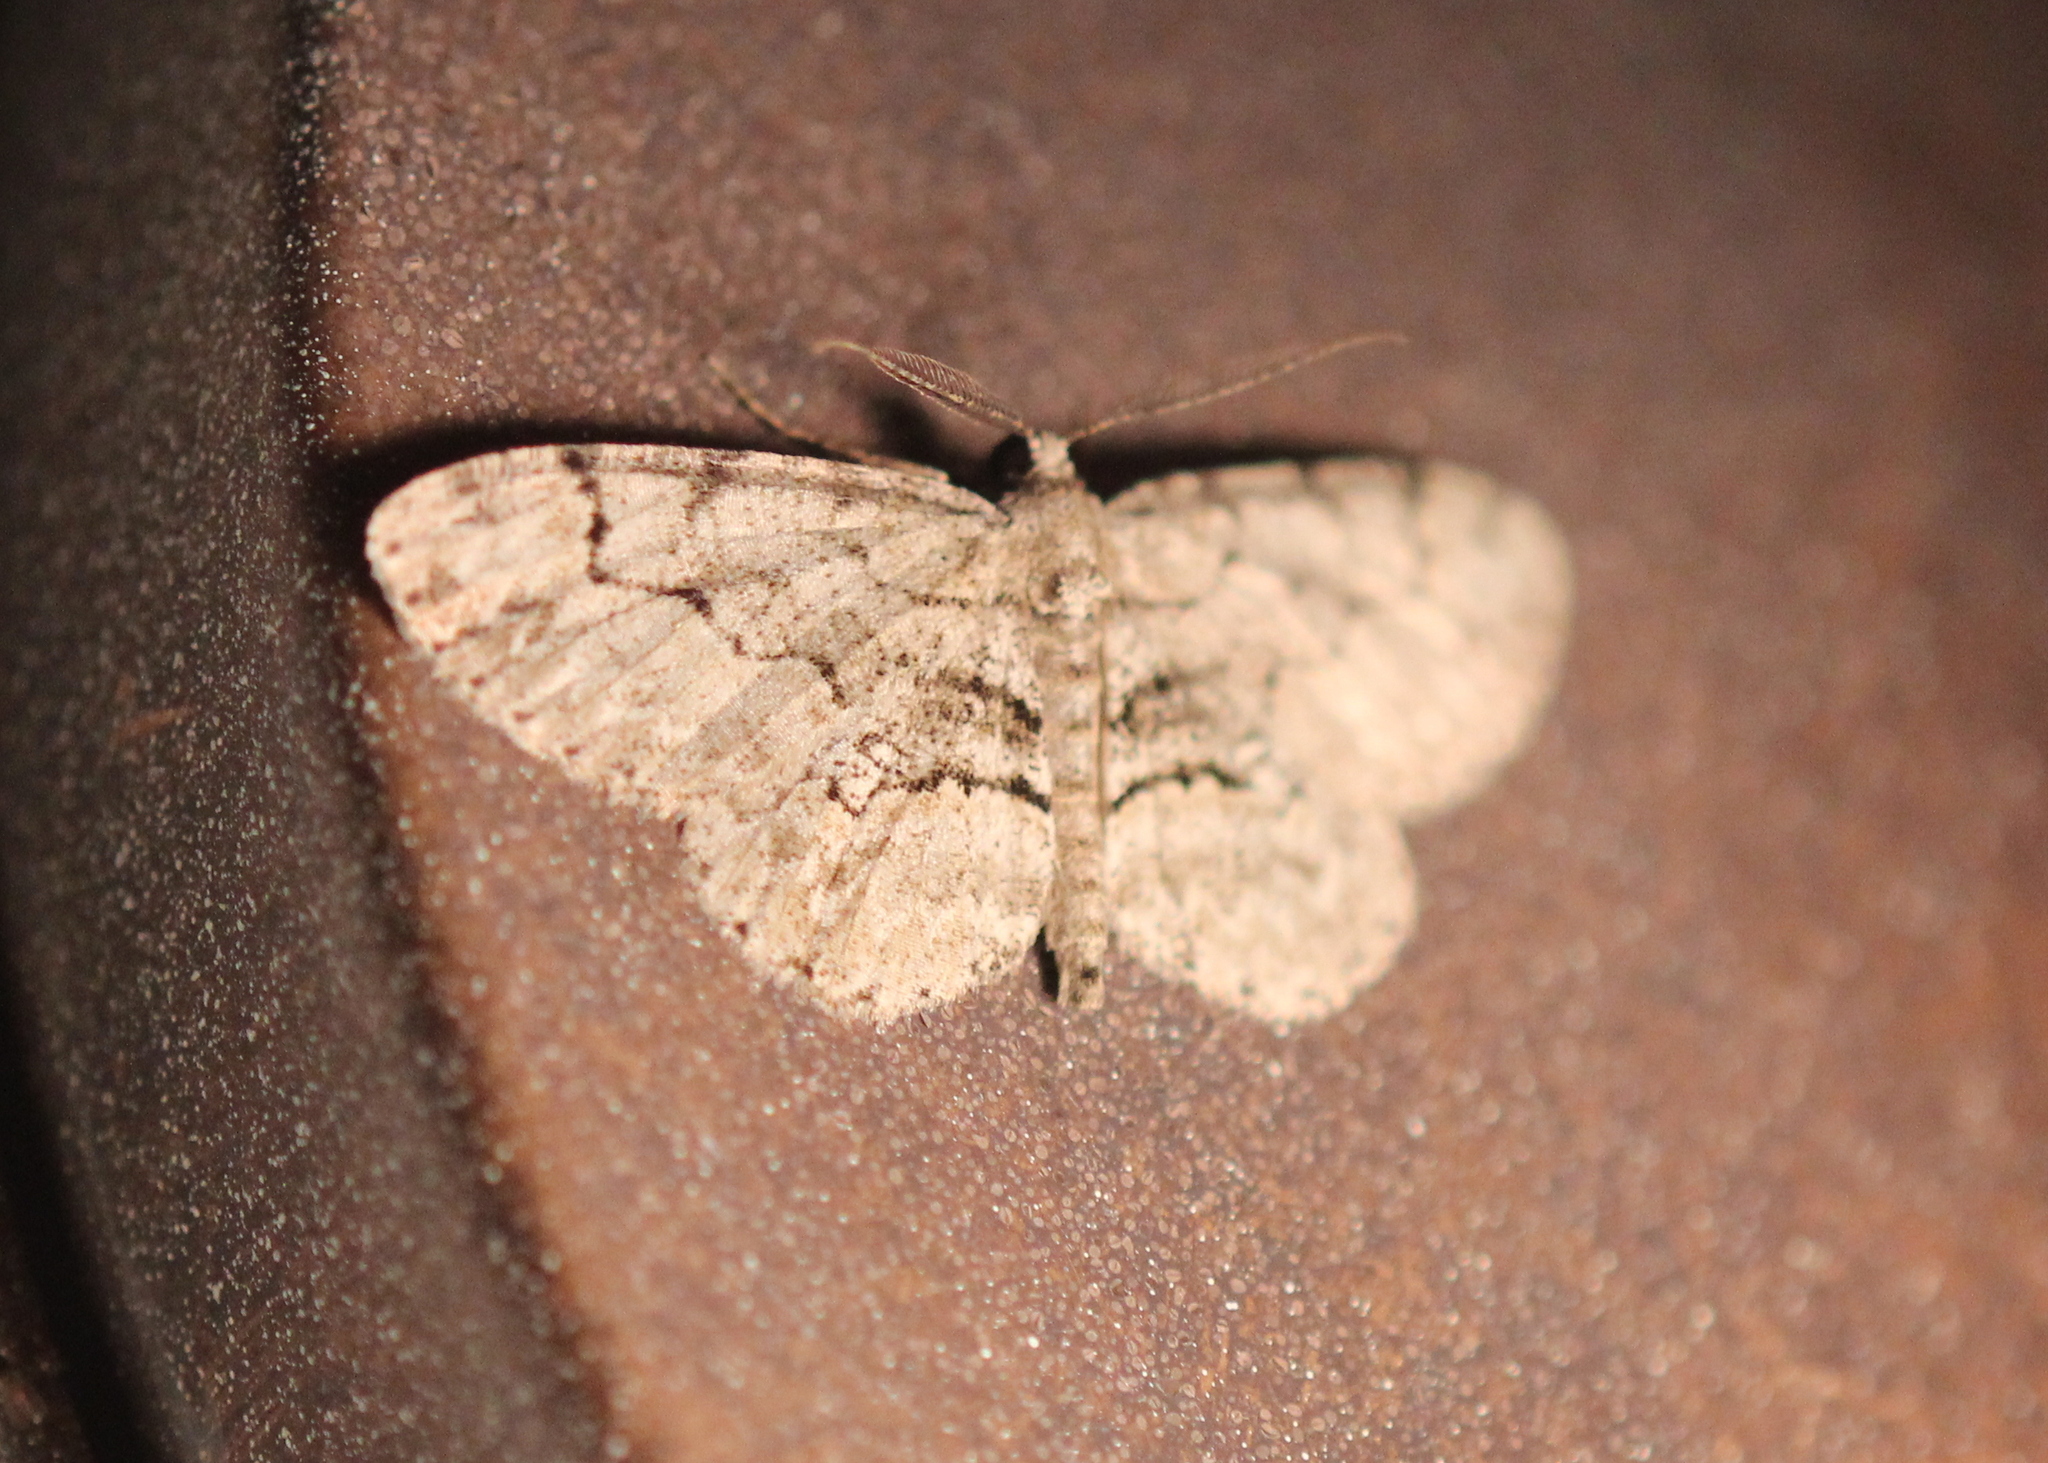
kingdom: Animalia
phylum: Arthropoda
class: Insecta
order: Lepidoptera
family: Geometridae
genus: Iridopsis
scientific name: Iridopsis ephyraria
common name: Pale-winged gray
